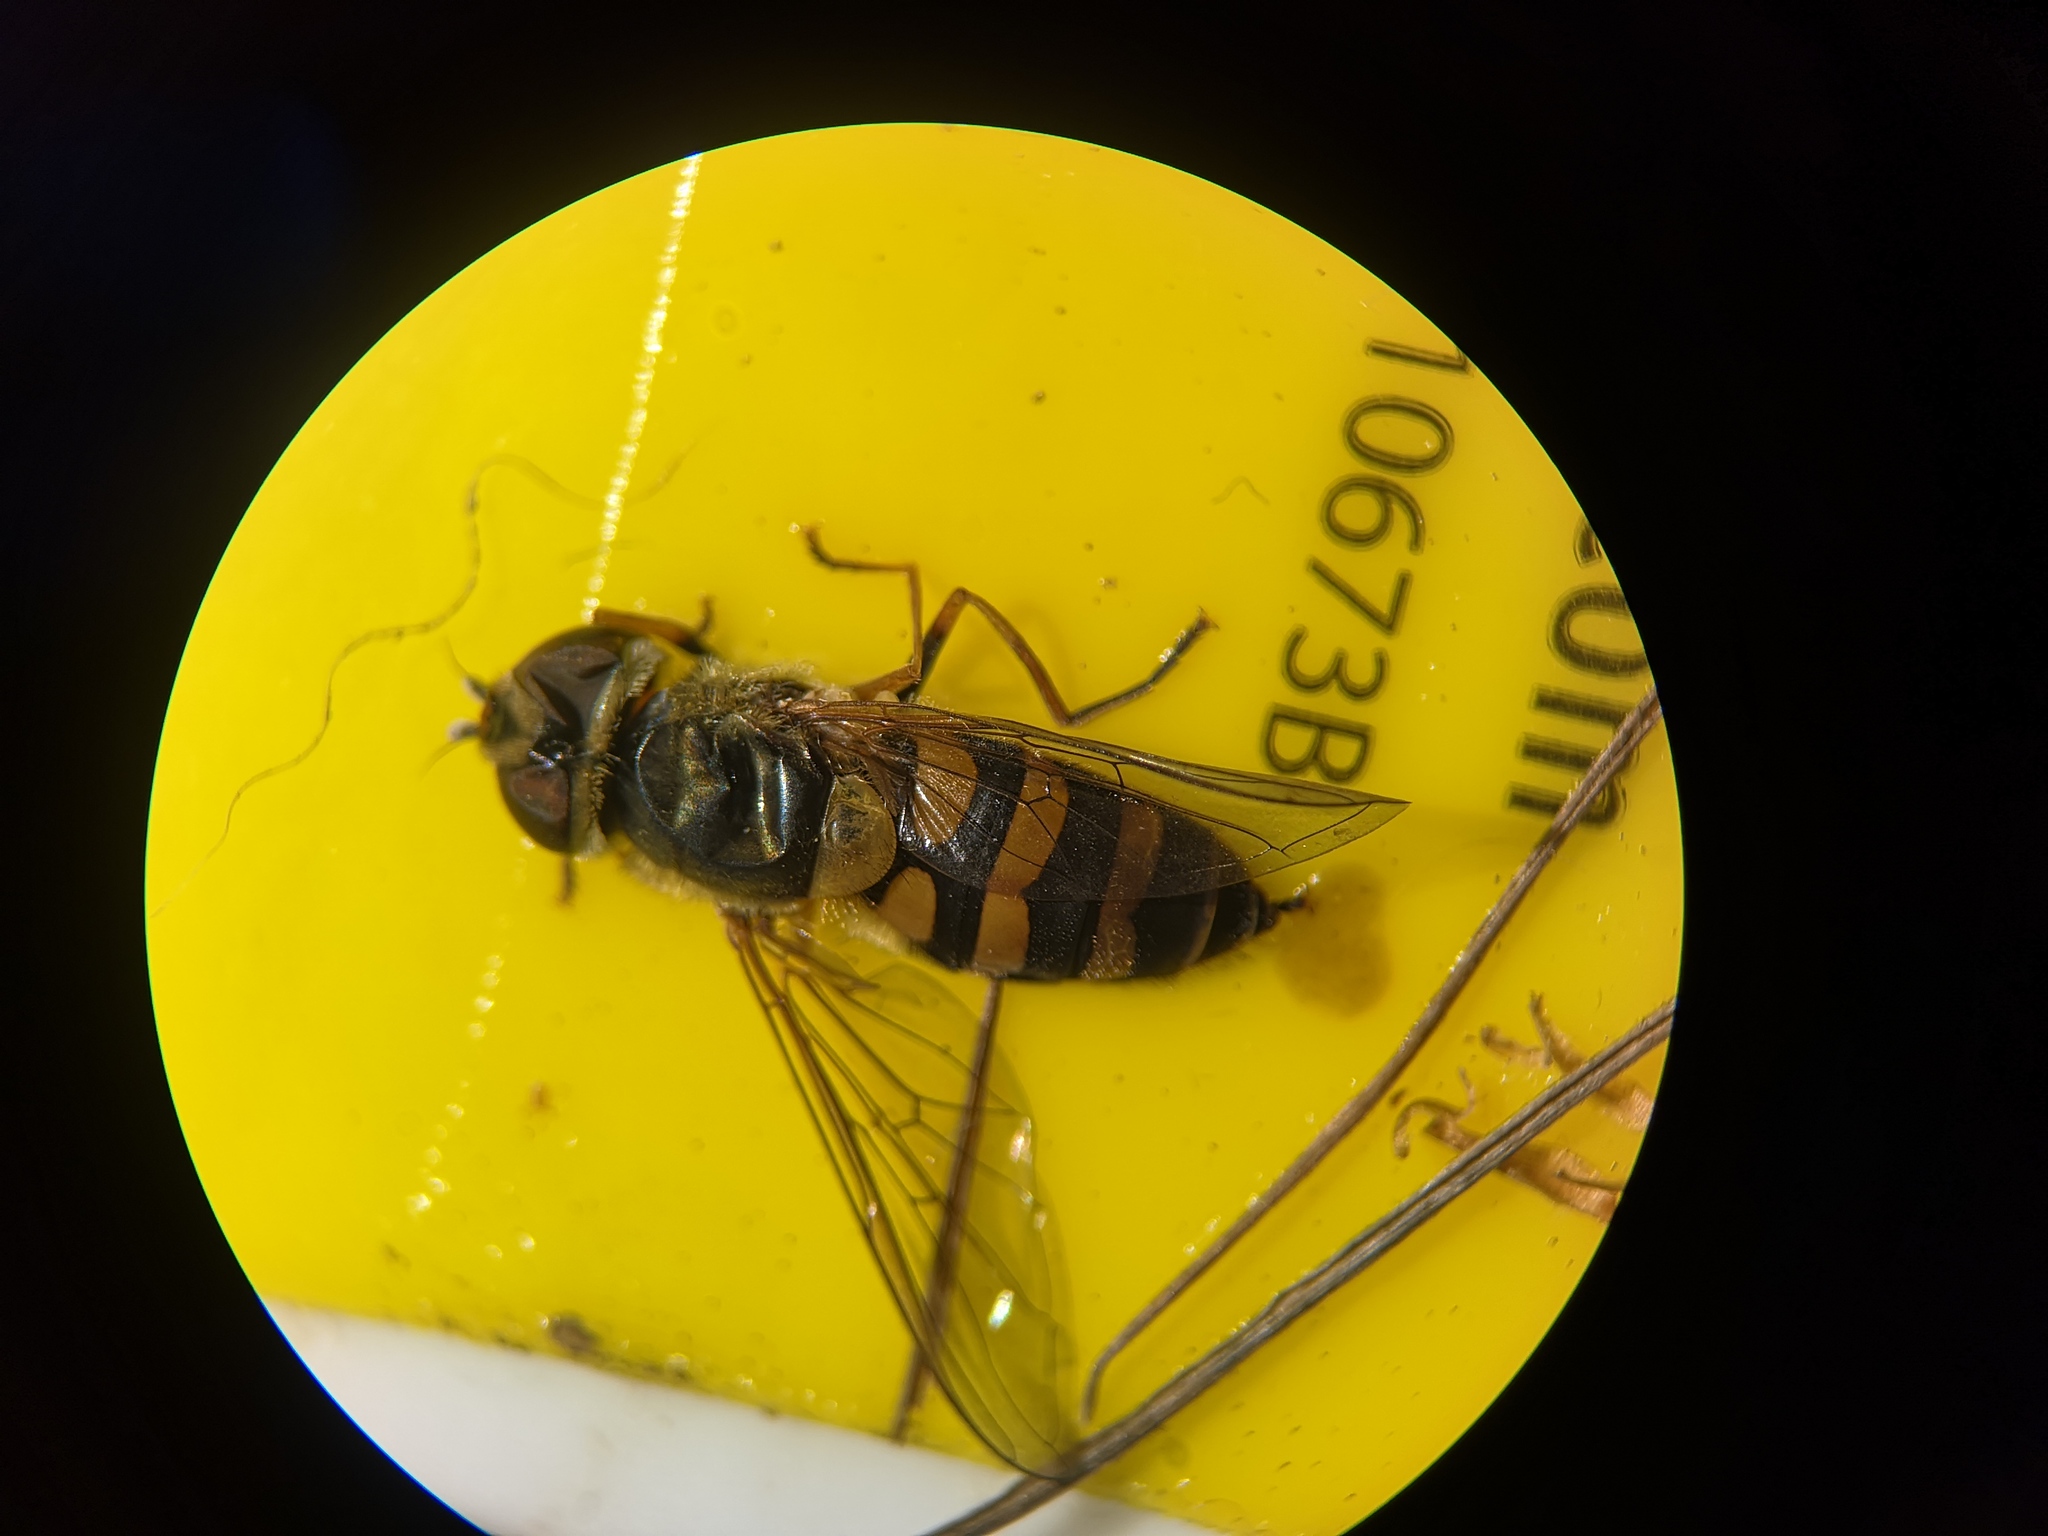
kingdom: Animalia
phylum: Arthropoda
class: Insecta
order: Diptera
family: Syrphidae
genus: Syrphus
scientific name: Syrphus
